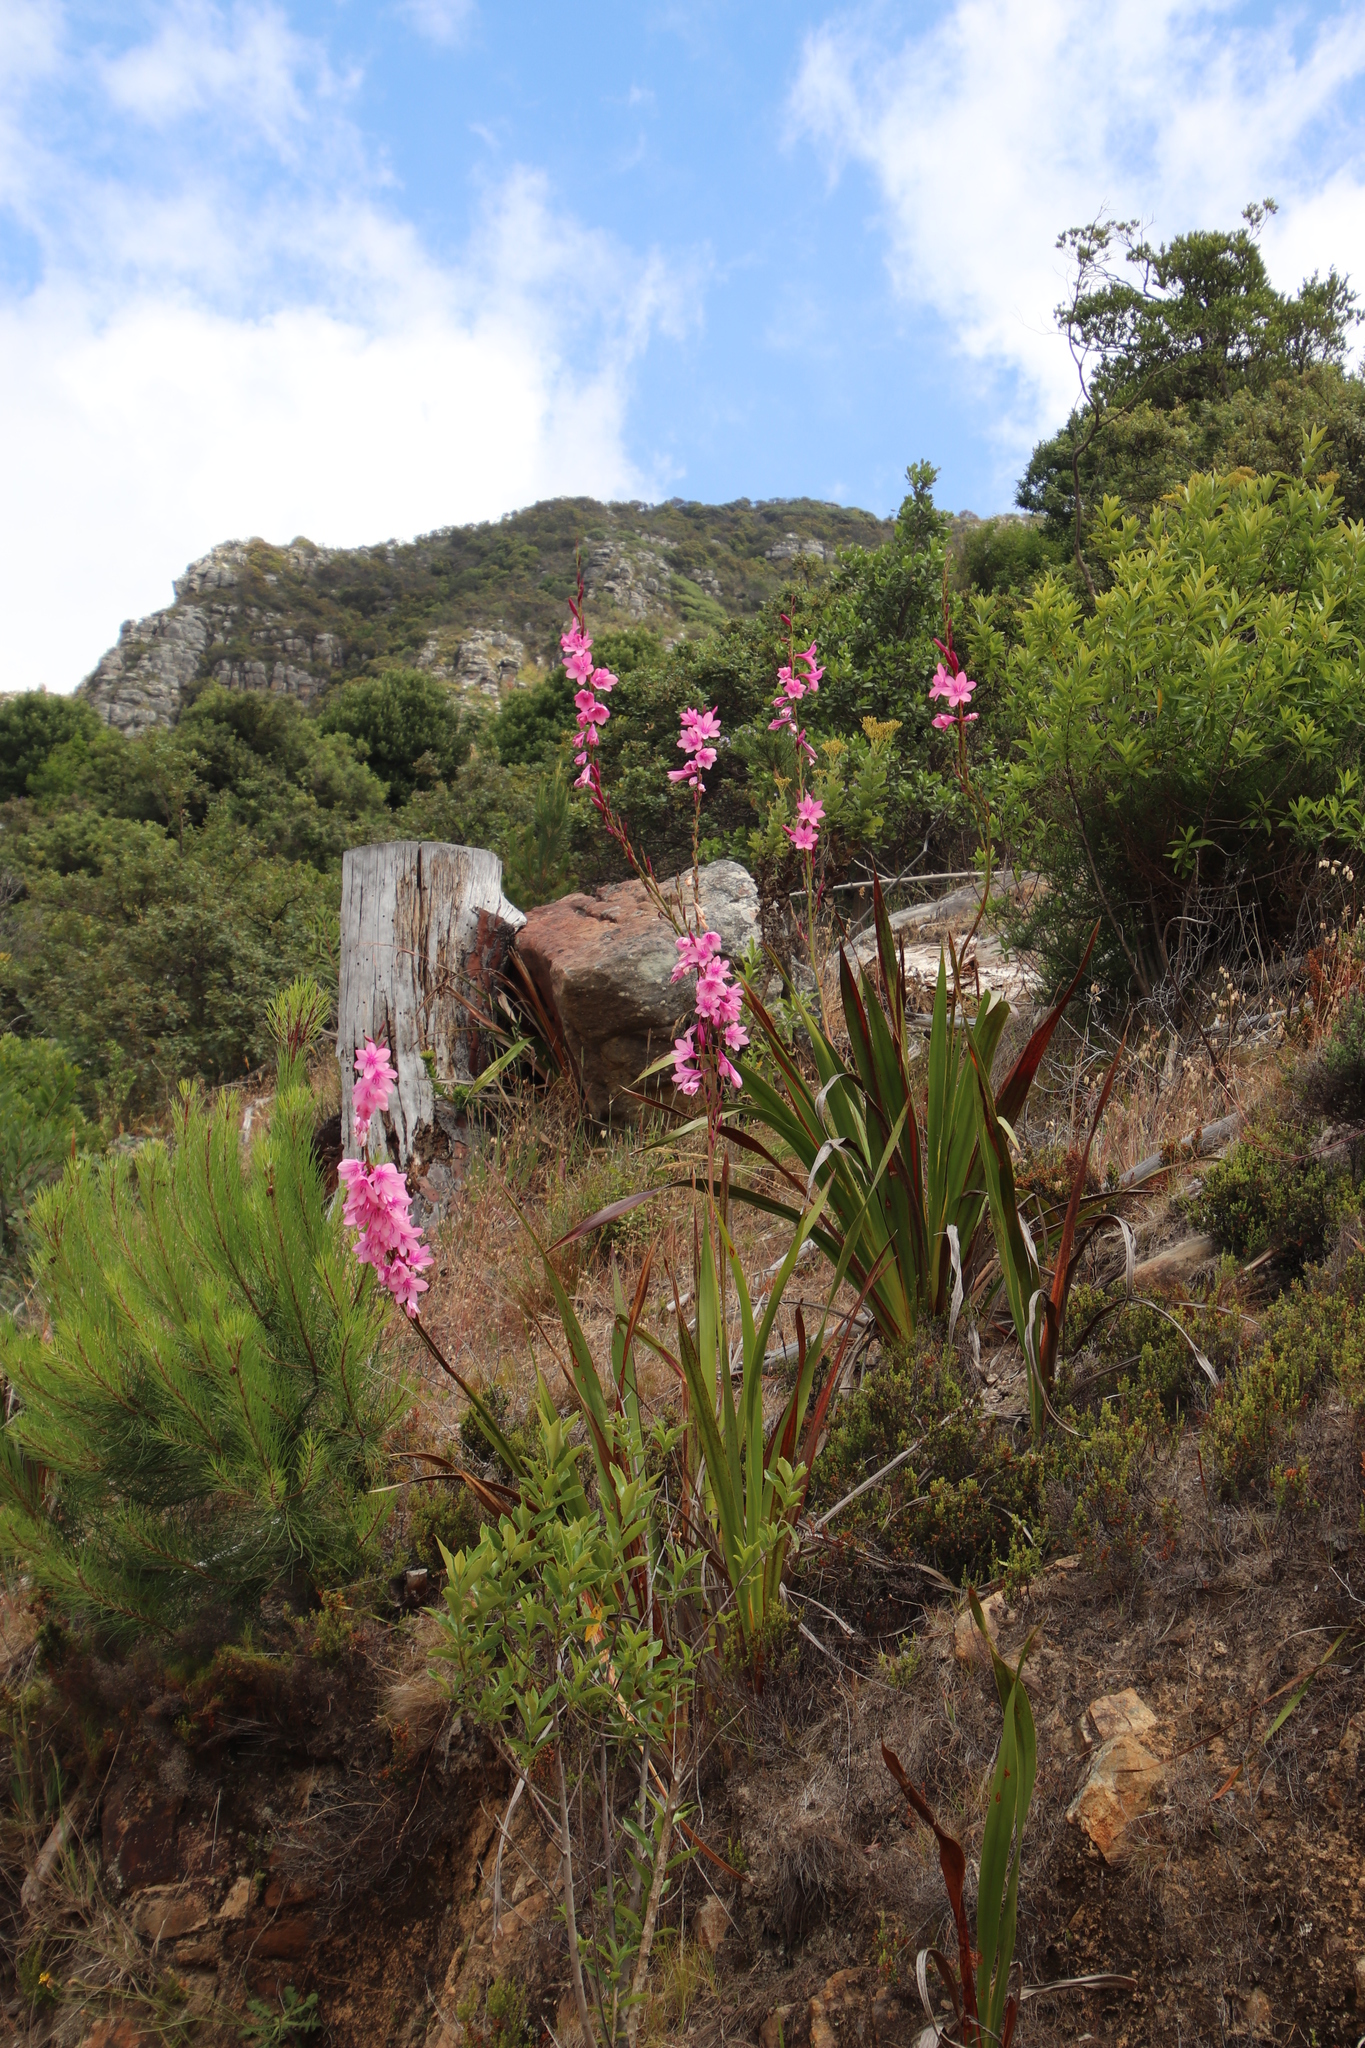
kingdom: Plantae
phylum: Tracheophyta
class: Liliopsida
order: Asparagales
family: Iridaceae
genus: Watsonia
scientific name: Watsonia borbonica
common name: Bugle-lily
